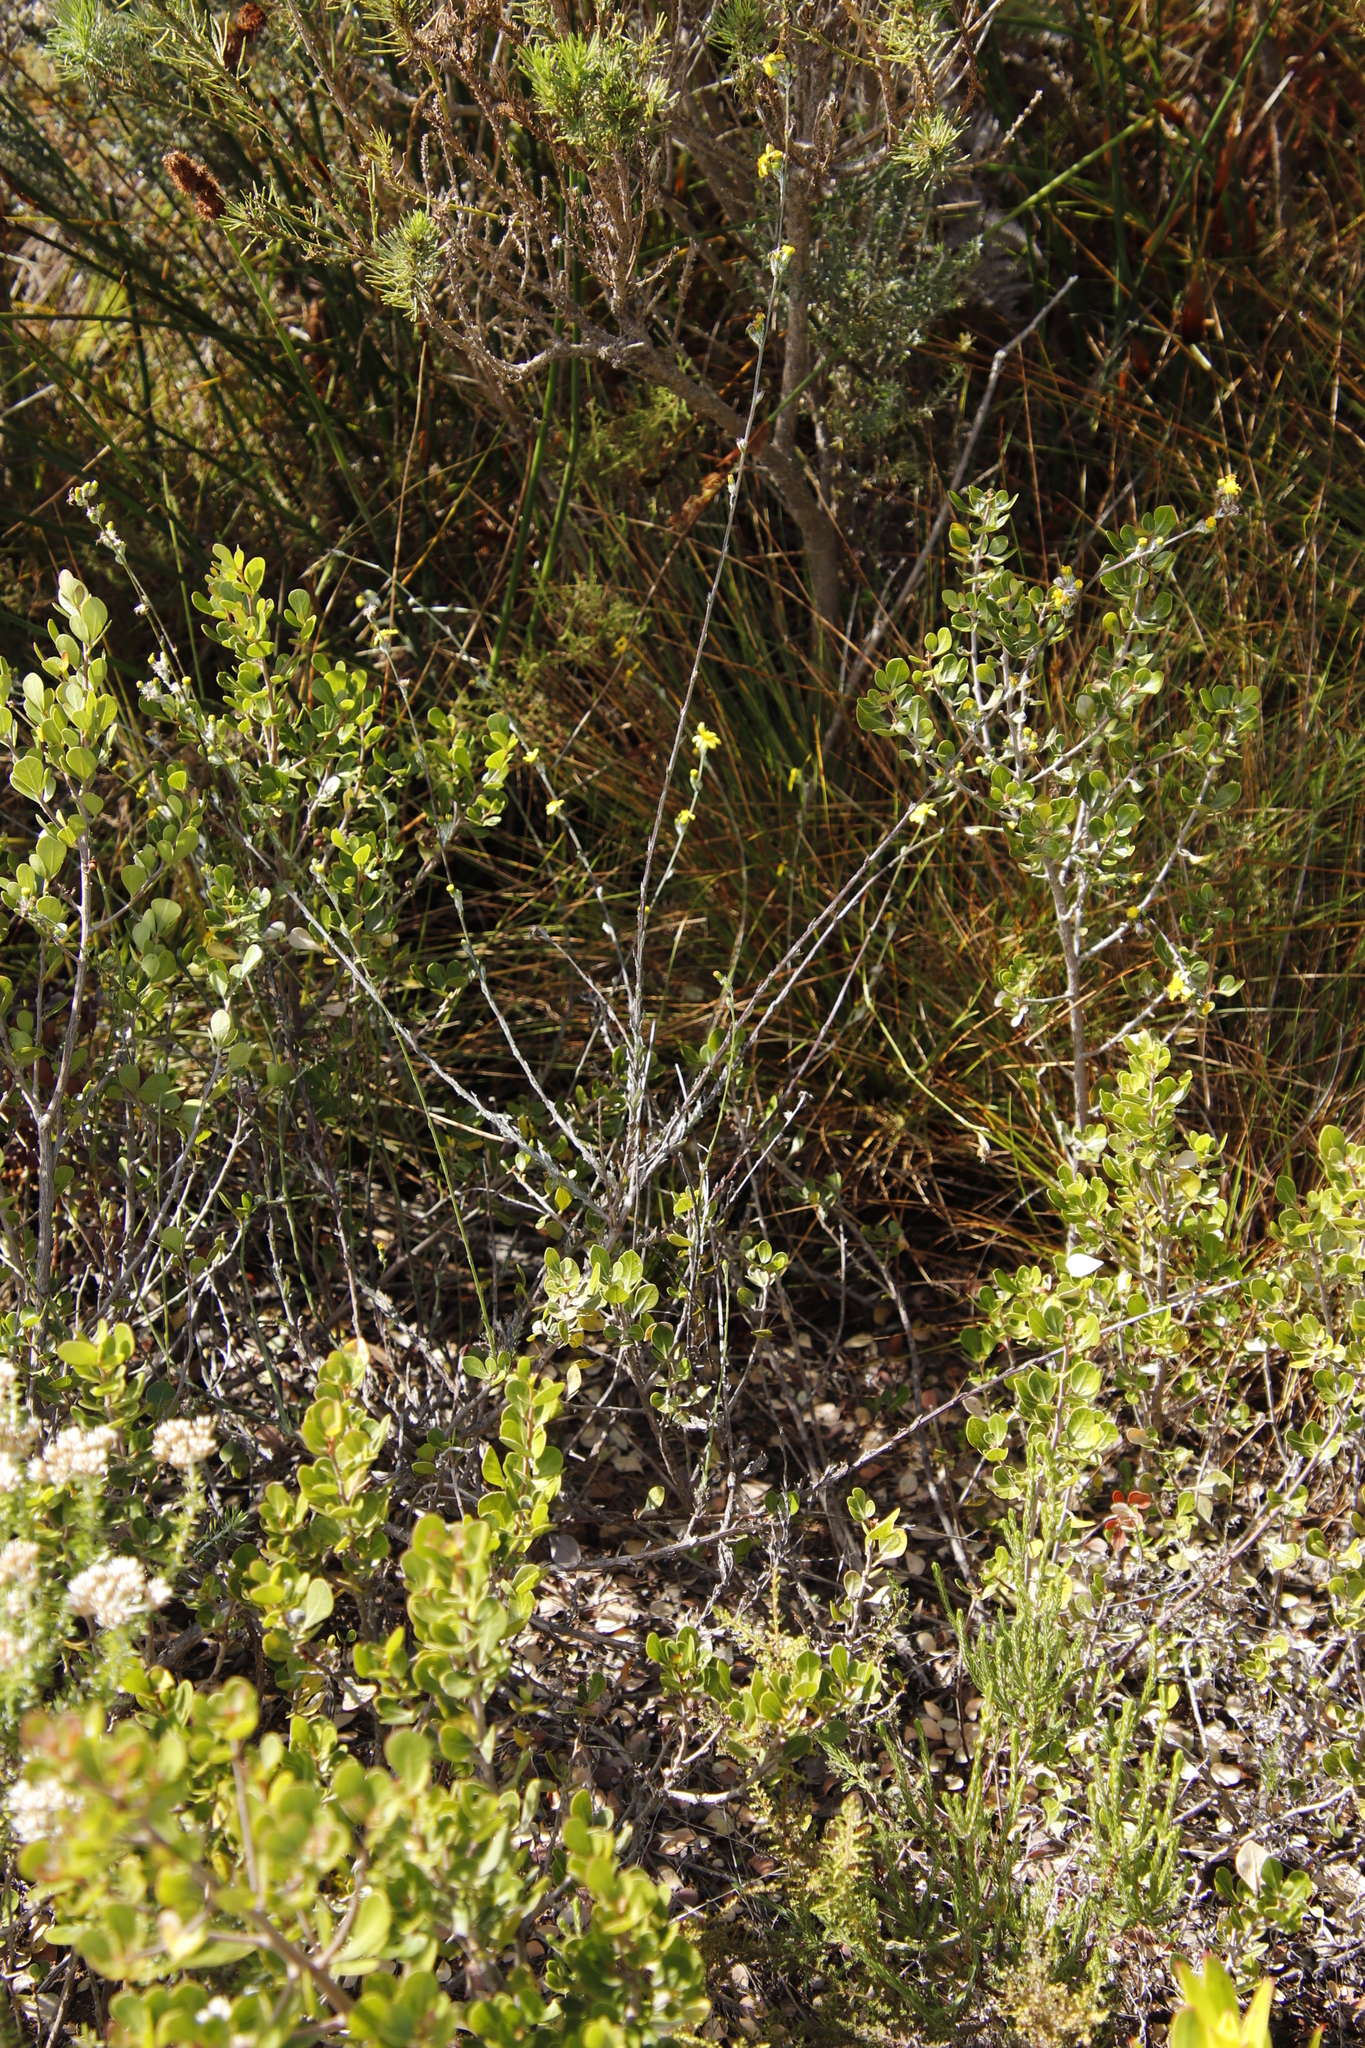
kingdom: Plantae
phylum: Tracheophyta
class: Magnoliopsida
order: Asterales
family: Asteraceae
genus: Senecio
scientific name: Senecio pubigerus
